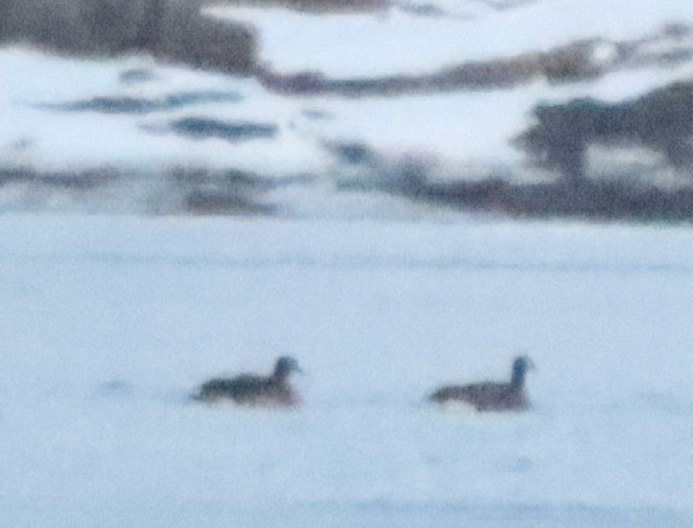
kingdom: Animalia
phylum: Chordata
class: Aves
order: Anseriformes
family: Anatidae
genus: Branta
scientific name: Branta
